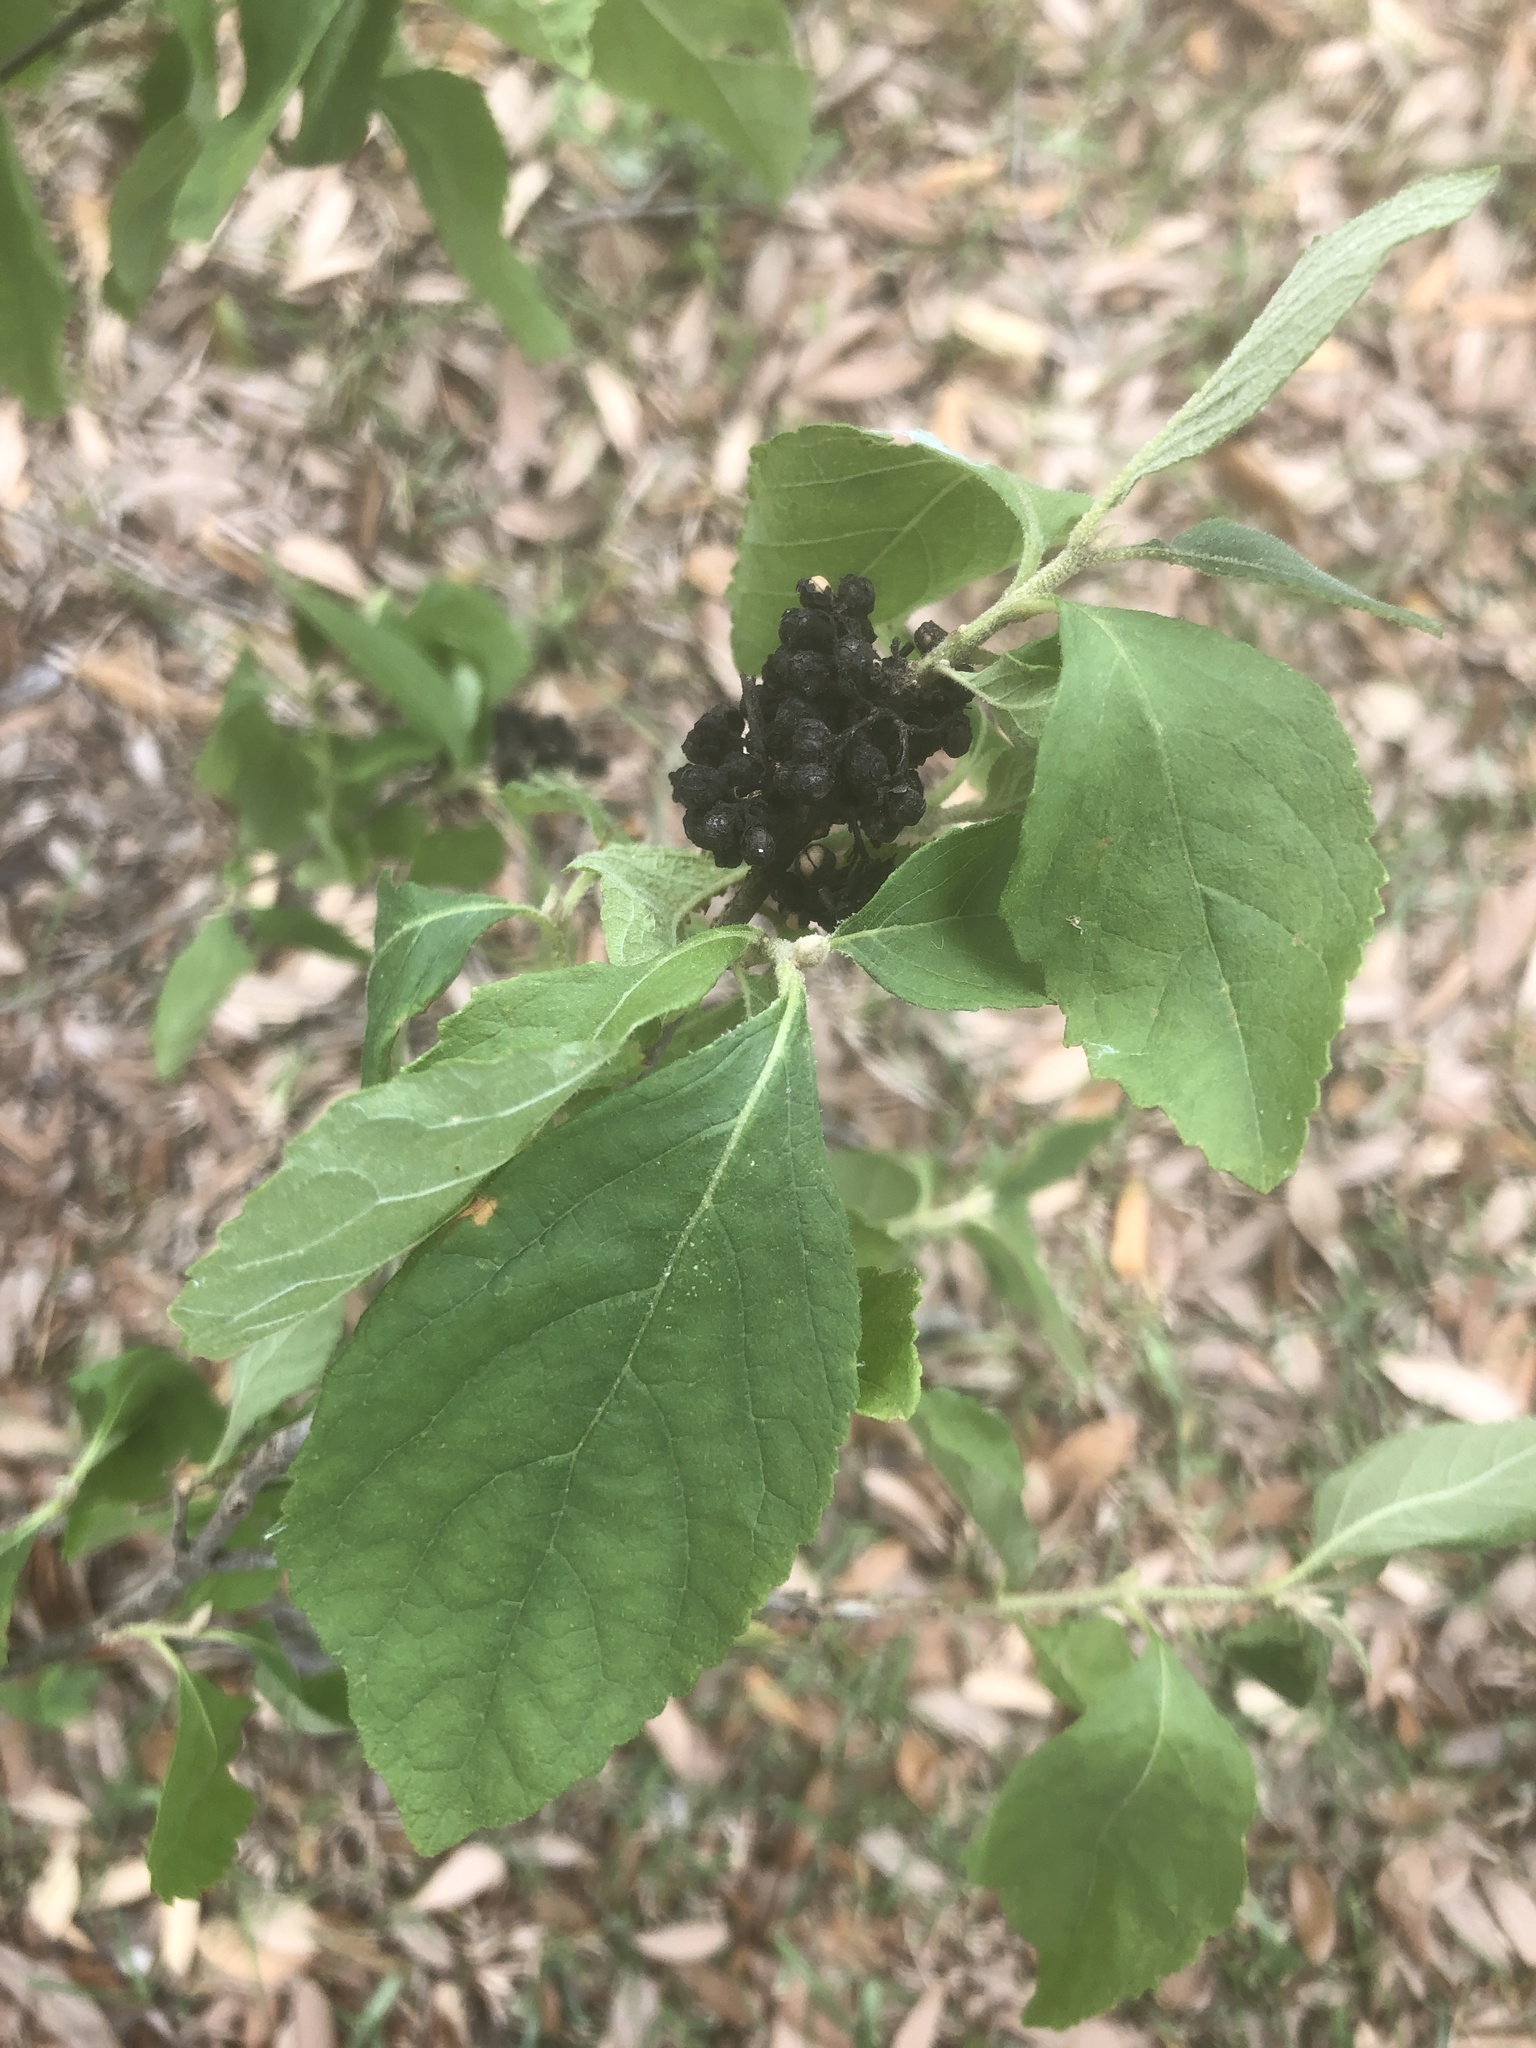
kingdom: Plantae
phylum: Tracheophyta
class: Magnoliopsida
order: Lamiales
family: Lamiaceae
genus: Callicarpa
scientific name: Callicarpa americana
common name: American beautyberry
